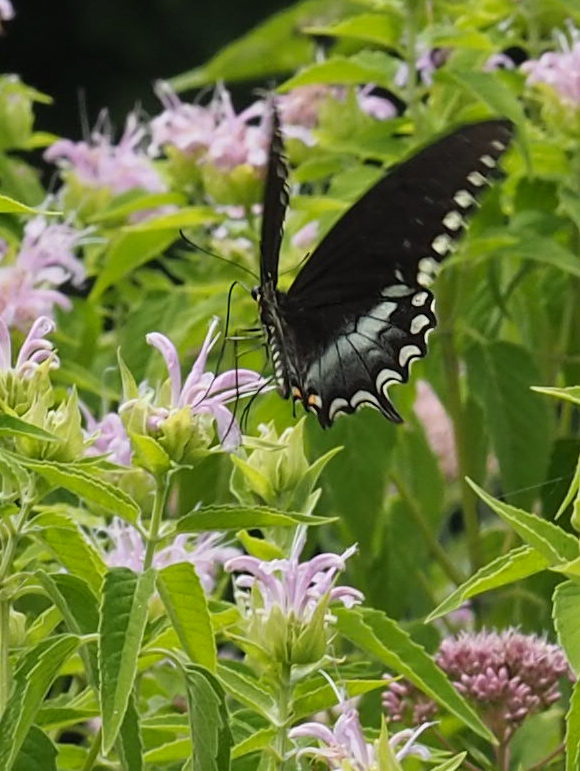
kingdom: Animalia
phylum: Arthropoda
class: Insecta
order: Lepidoptera
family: Papilionidae
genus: Papilio
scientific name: Papilio troilus
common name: Spicebush swallowtail
